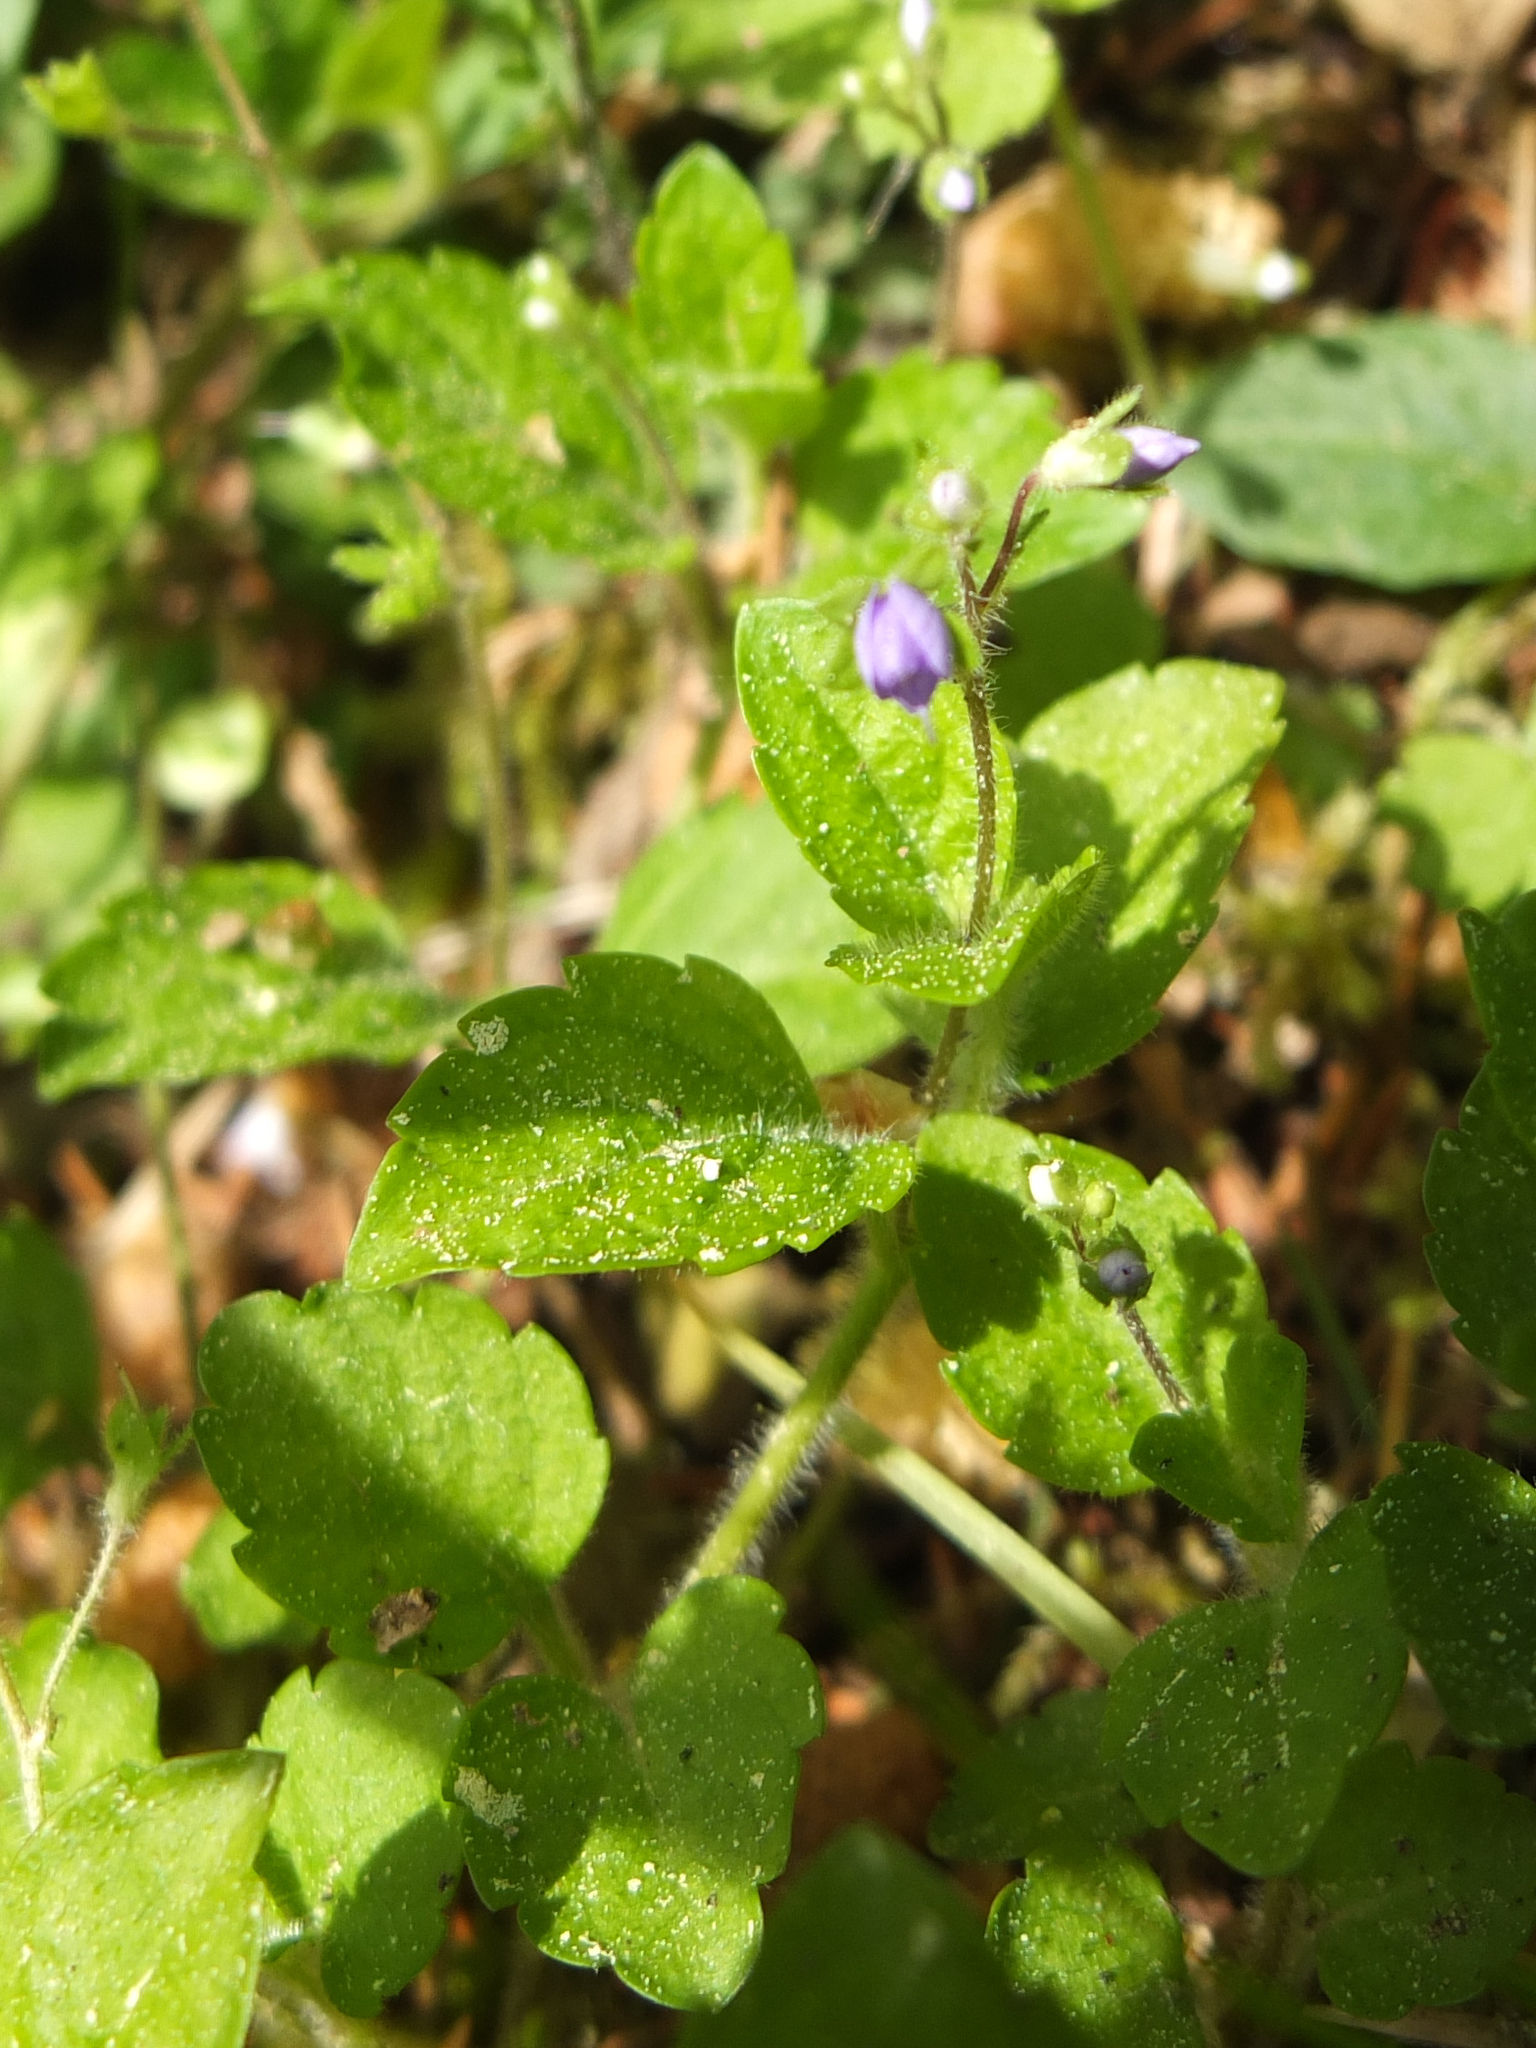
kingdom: Plantae
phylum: Tracheophyta
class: Magnoliopsida
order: Lamiales
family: Plantaginaceae
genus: Veronica
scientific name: Veronica chamaedrys
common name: Germander speedwell
